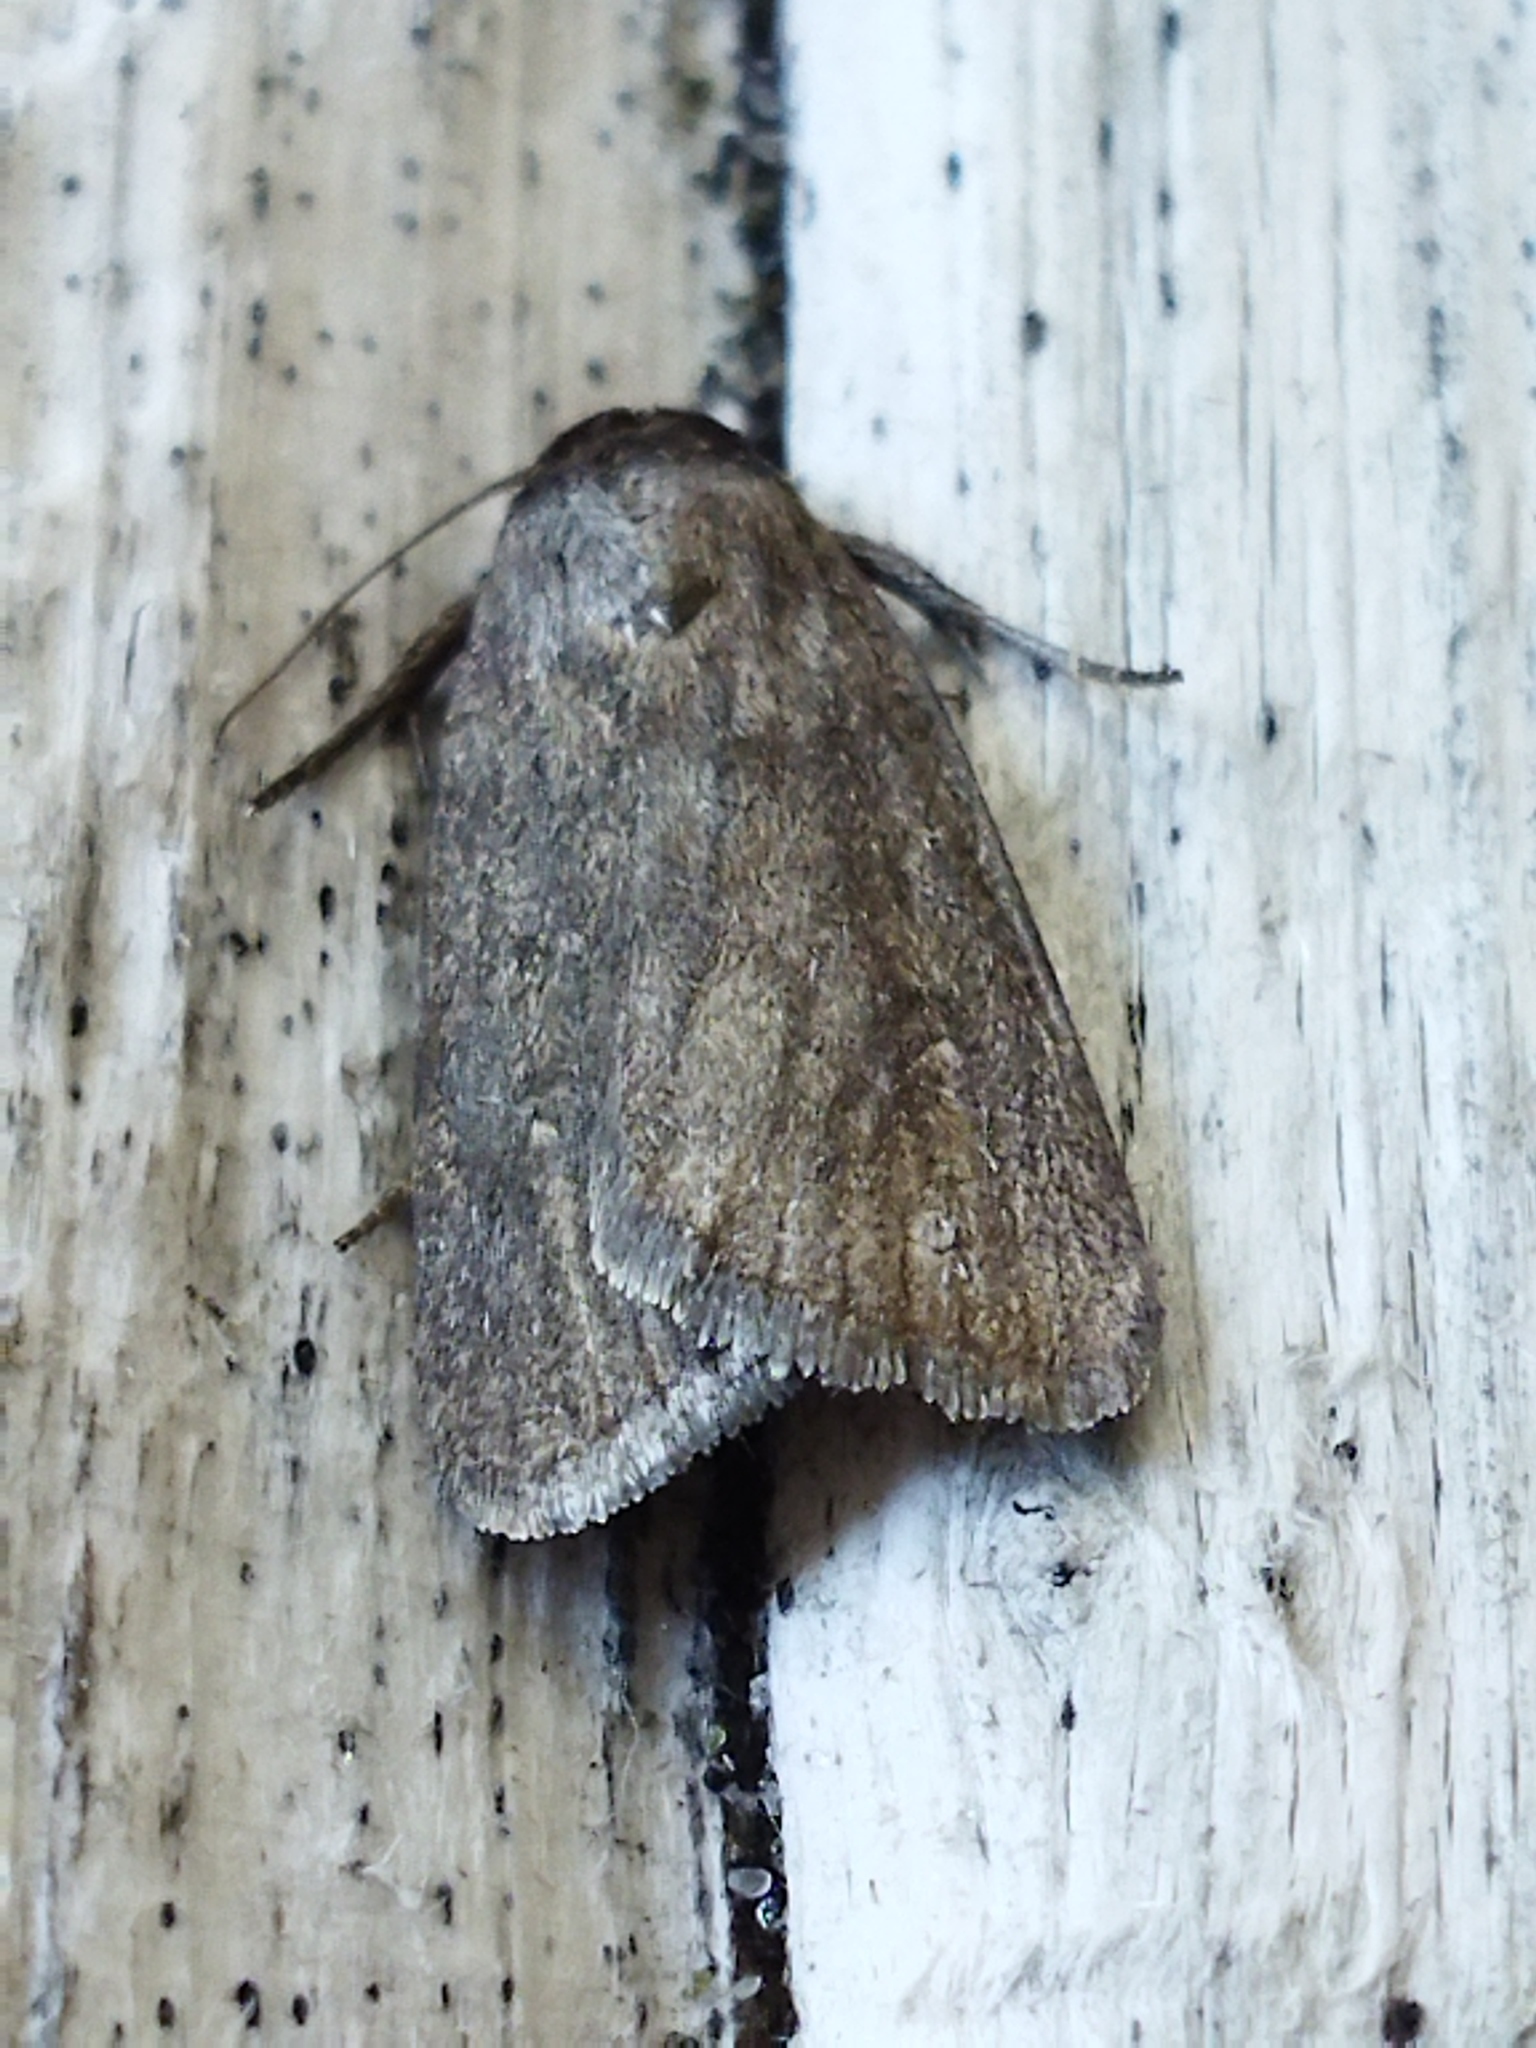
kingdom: Animalia
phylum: Arthropoda
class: Insecta
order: Lepidoptera
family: Noctuidae
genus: Athetis
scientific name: Athetis hospes
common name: Porter's rustic
